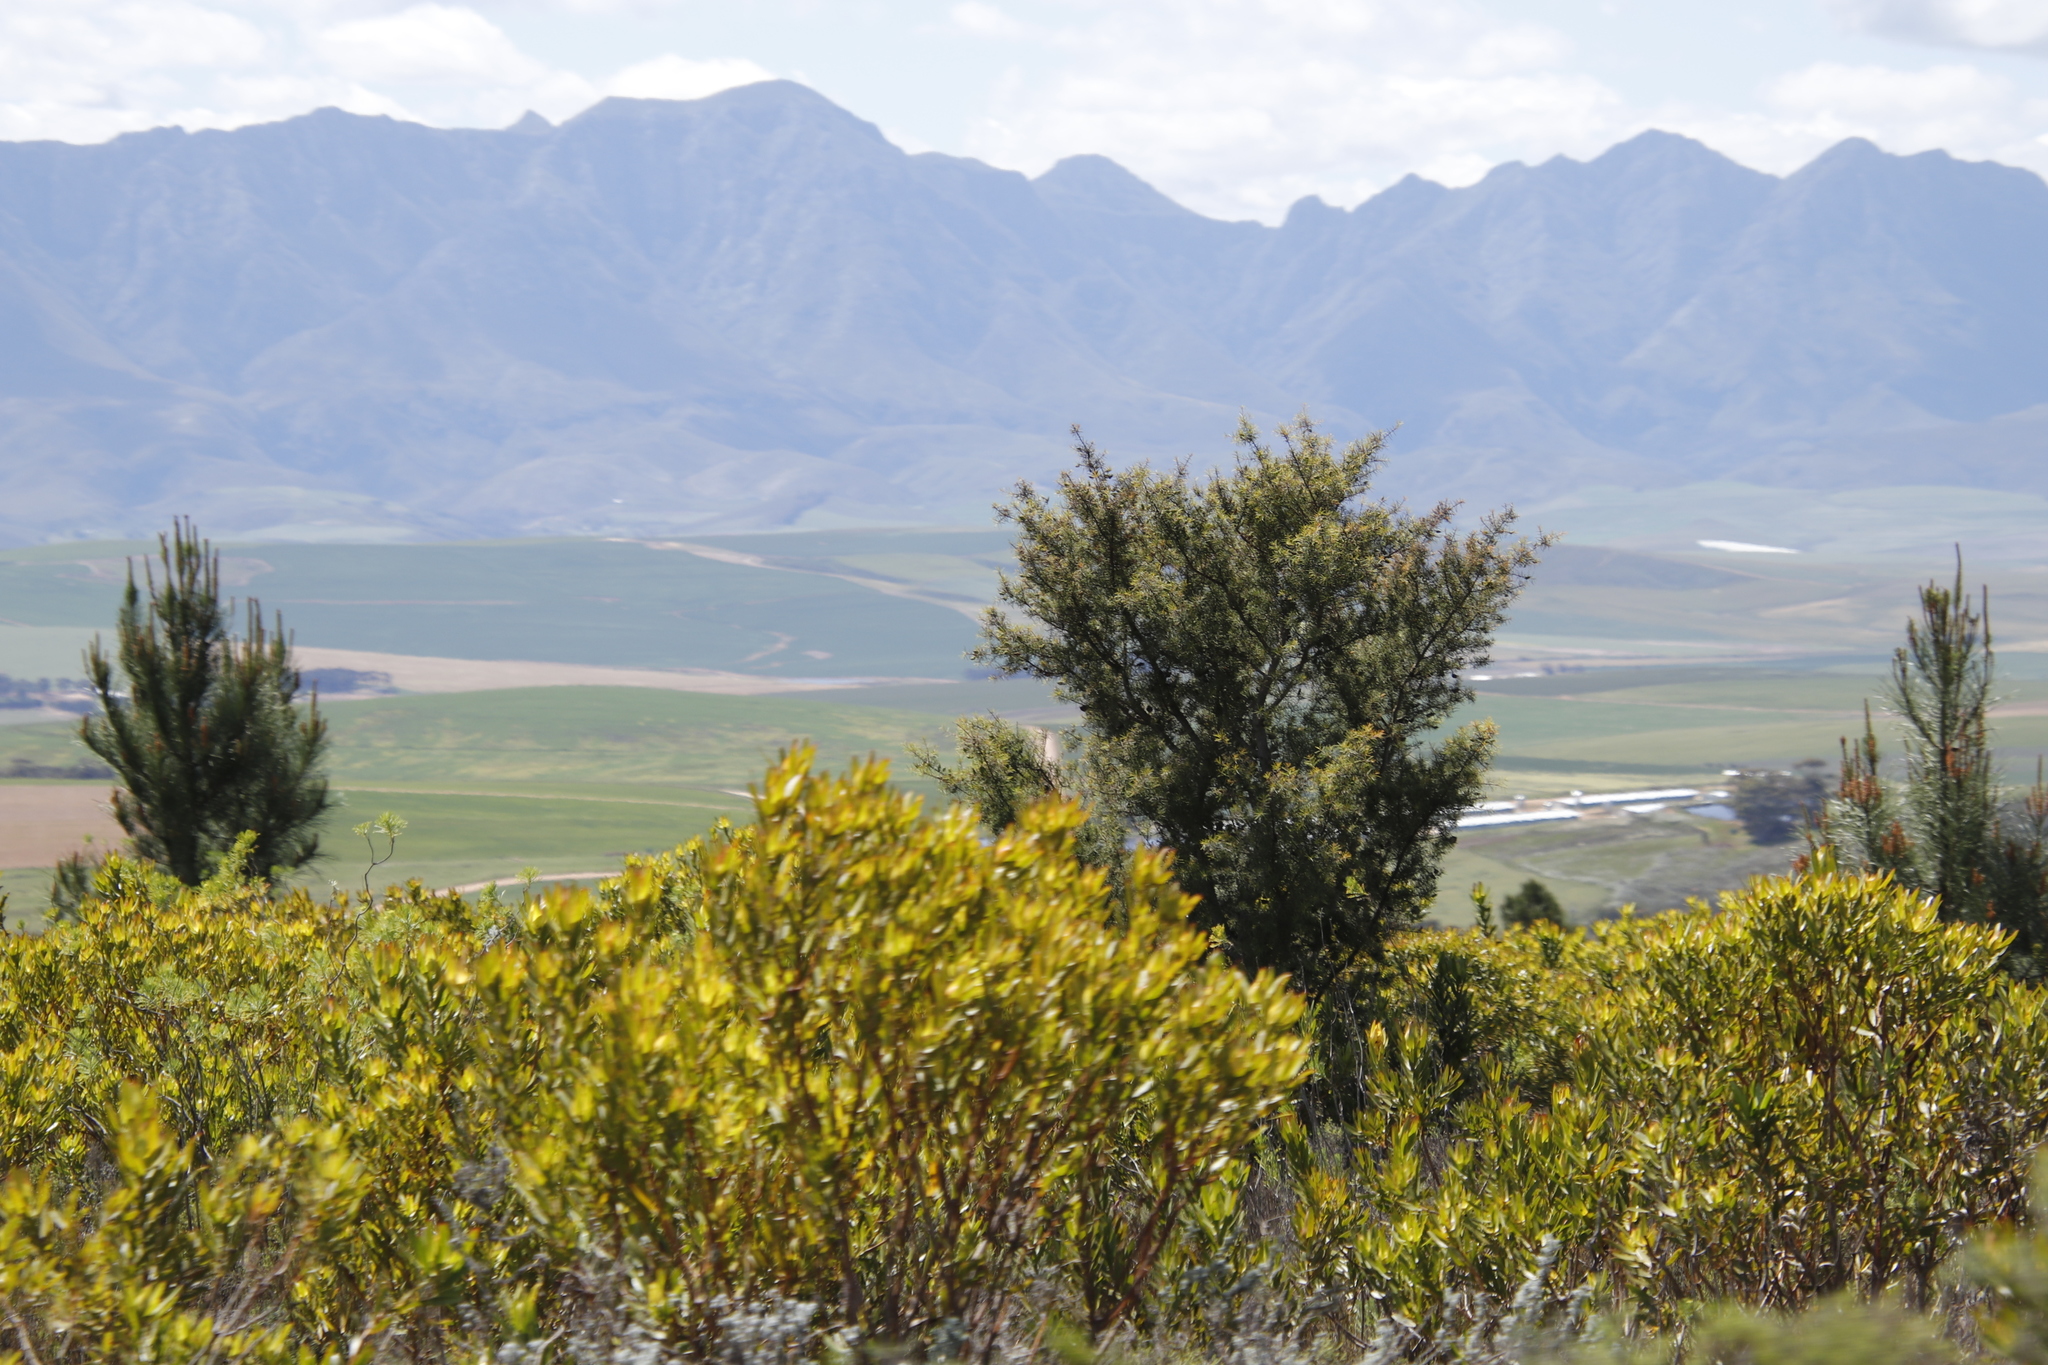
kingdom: Plantae
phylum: Tracheophyta
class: Magnoliopsida
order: Proteales
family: Proteaceae
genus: Hakea
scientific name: Hakea sericea
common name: Needle bush
